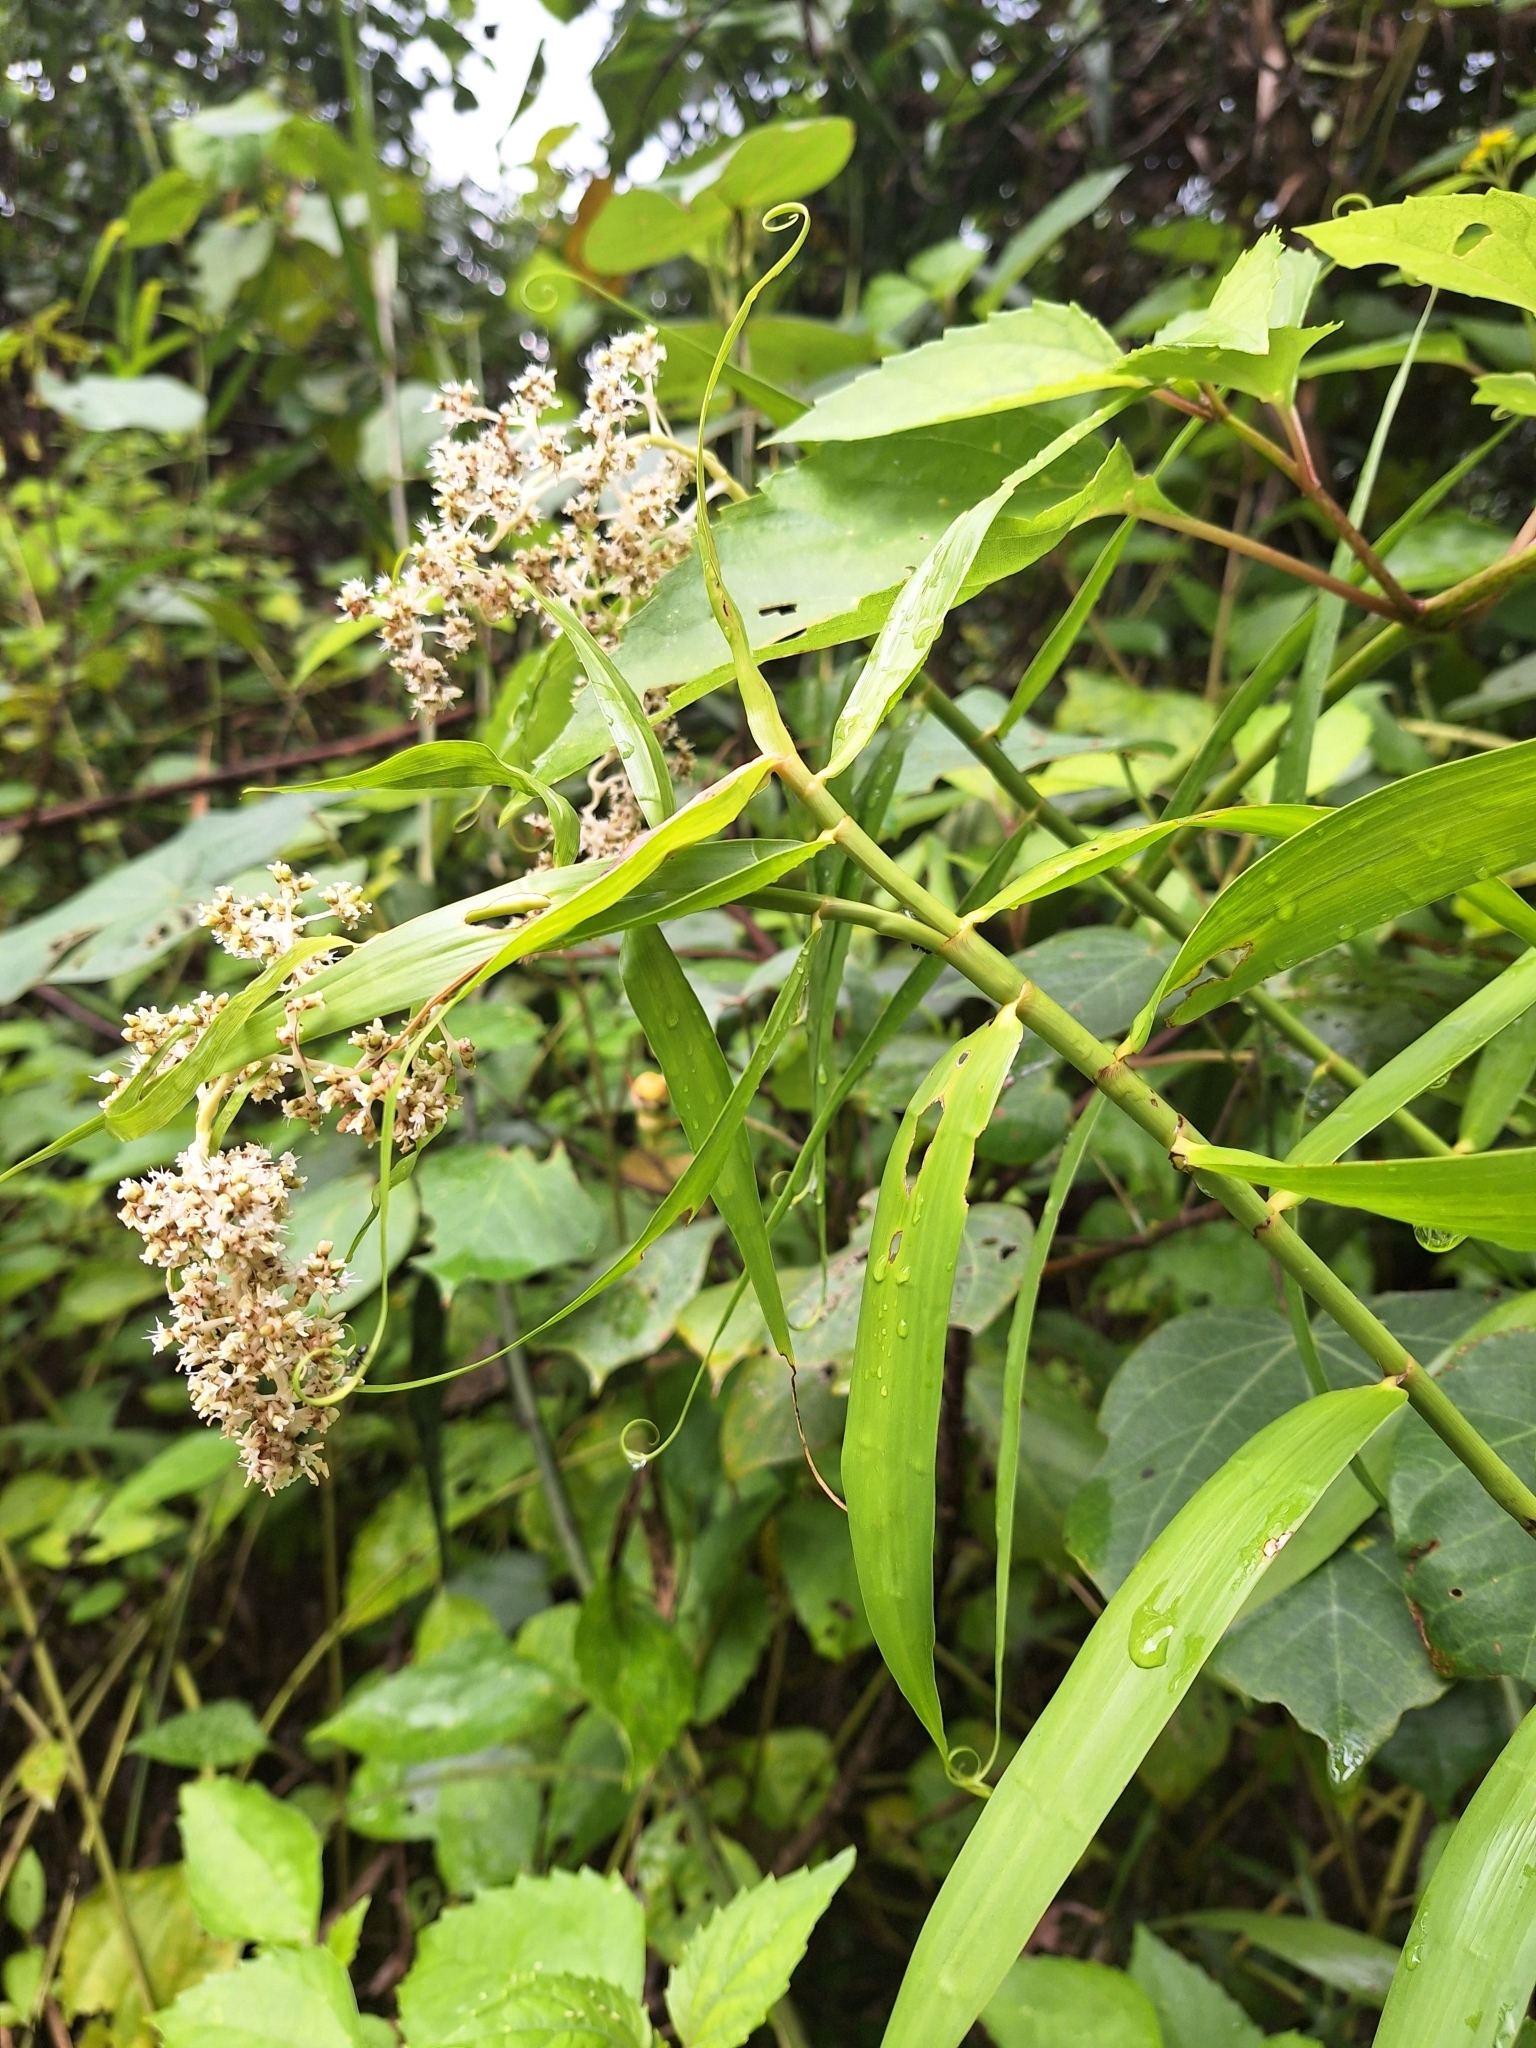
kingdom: Plantae
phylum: Tracheophyta
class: Liliopsida
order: Poales
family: Flagellariaceae
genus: Flagellaria
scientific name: Flagellaria indica
